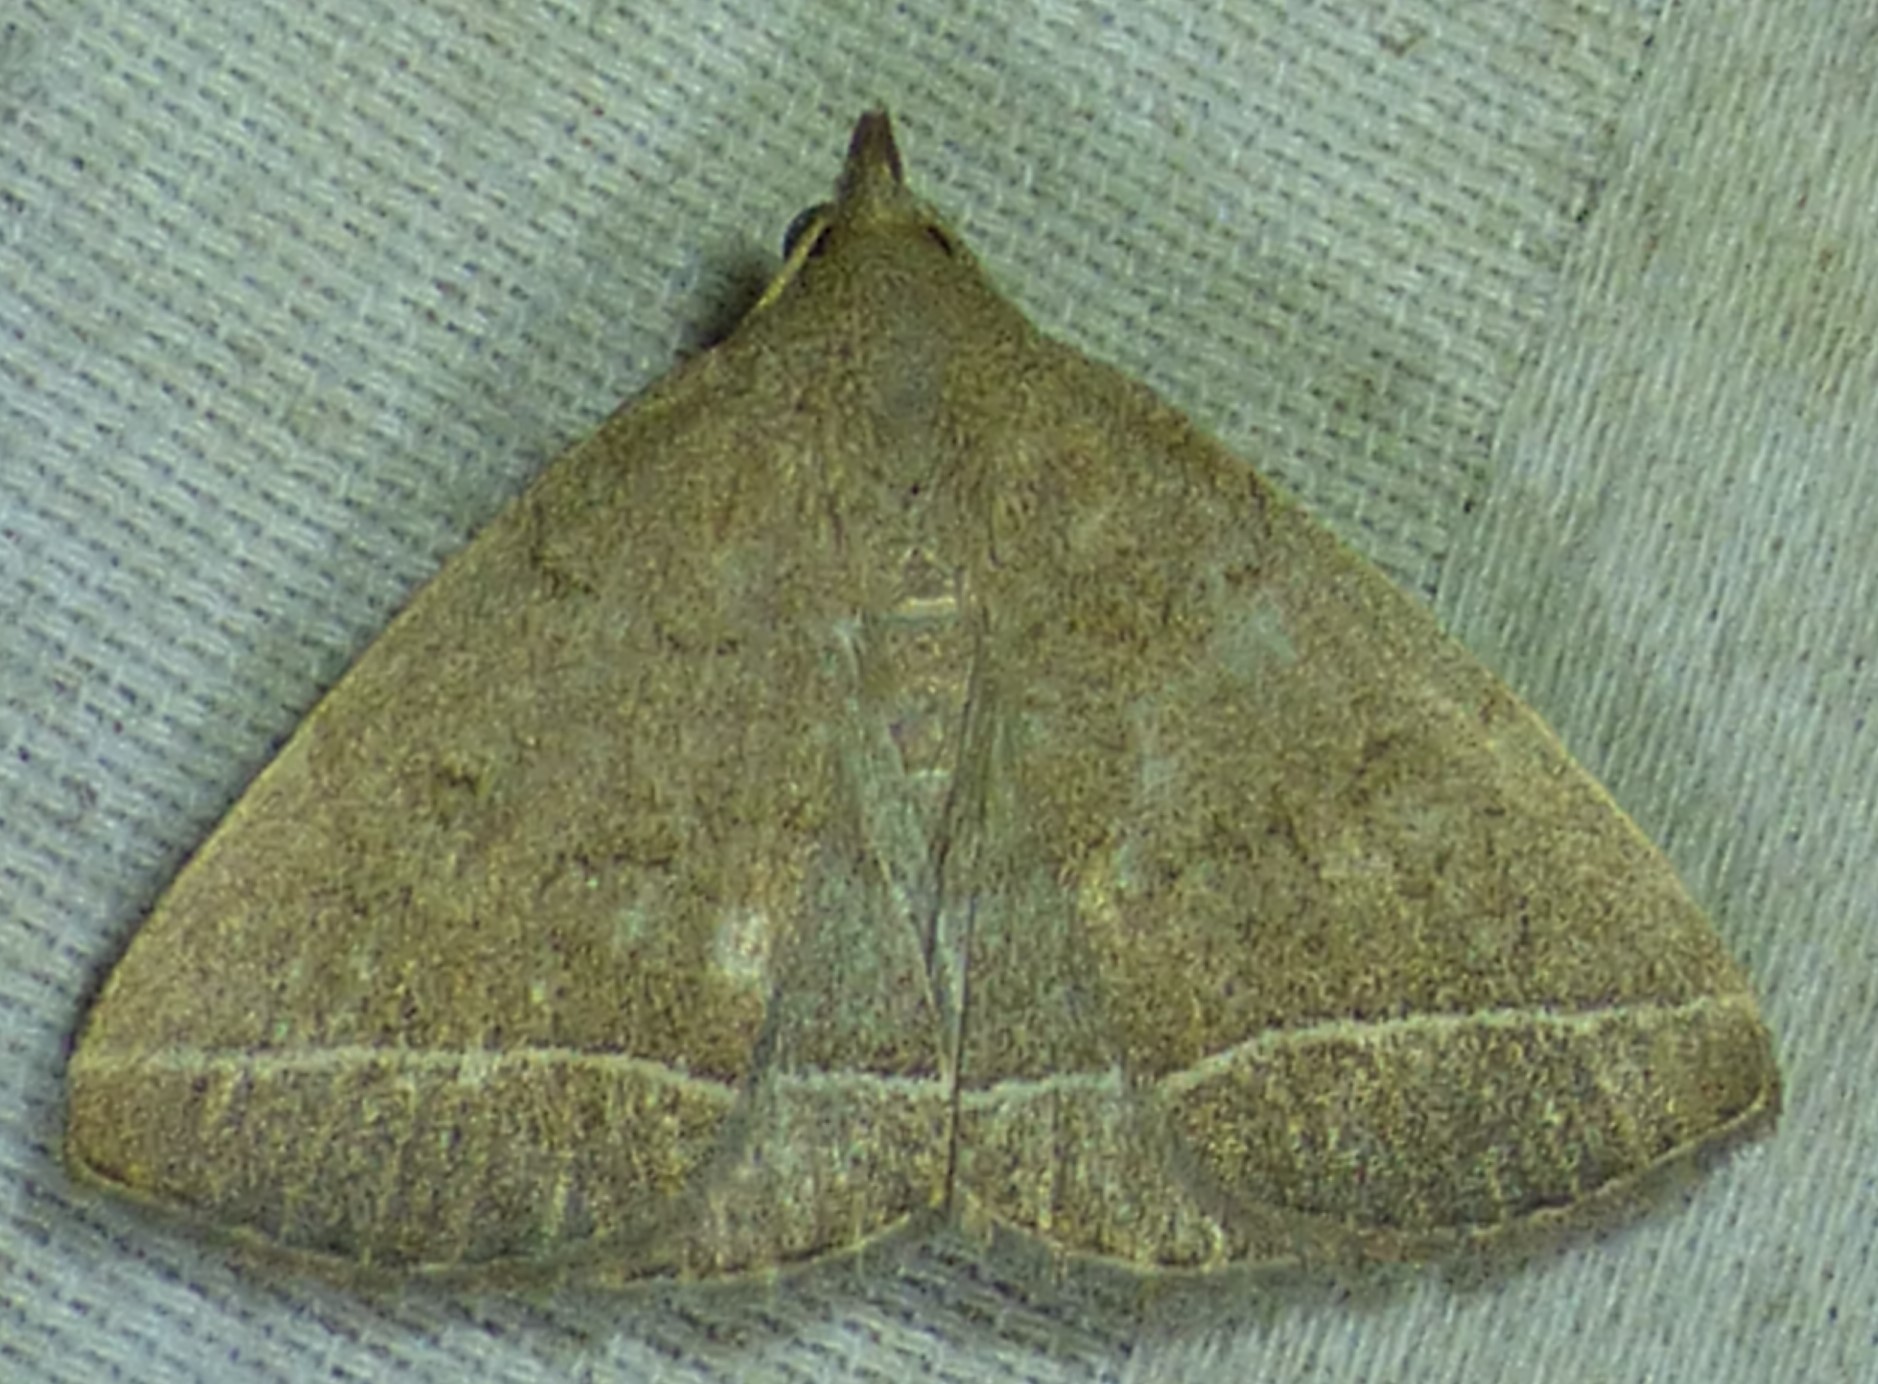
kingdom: Animalia
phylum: Arthropoda
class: Insecta
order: Lepidoptera
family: Erebidae
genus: Zanclognatha
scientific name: Zanclognatha marcidilinea
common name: Yellowish fan-foot
